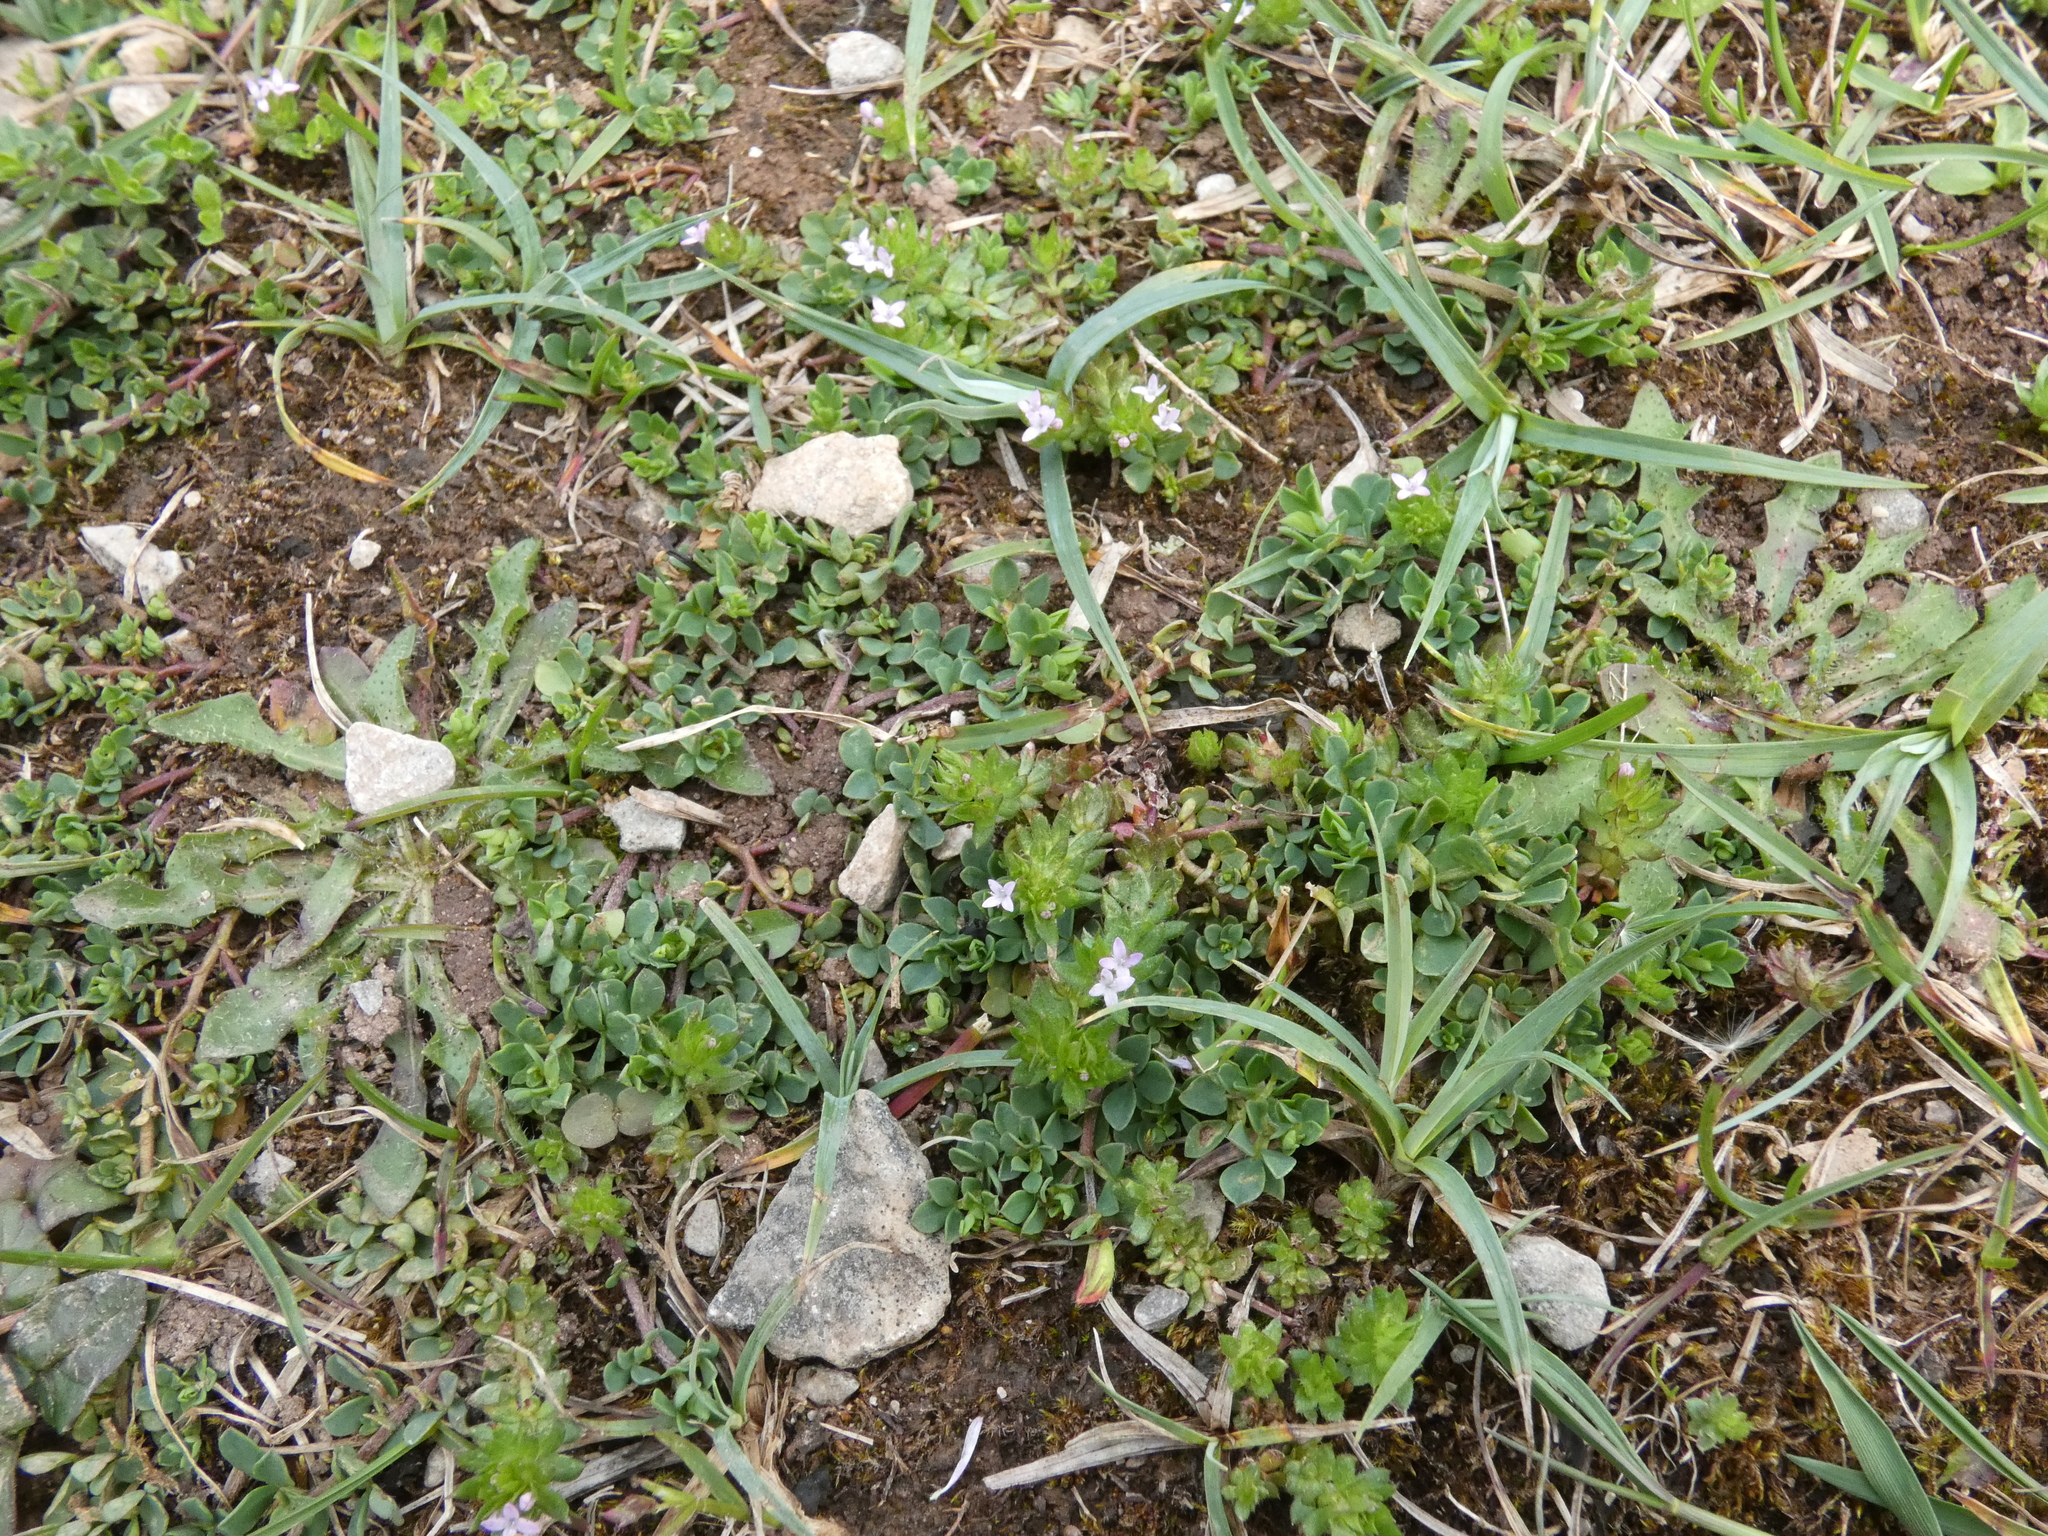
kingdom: Plantae
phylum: Tracheophyta
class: Magnoliopsida
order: Gentianales
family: Rubiaceae
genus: Sherardia
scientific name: Sherardia arvensis
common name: Field madder
